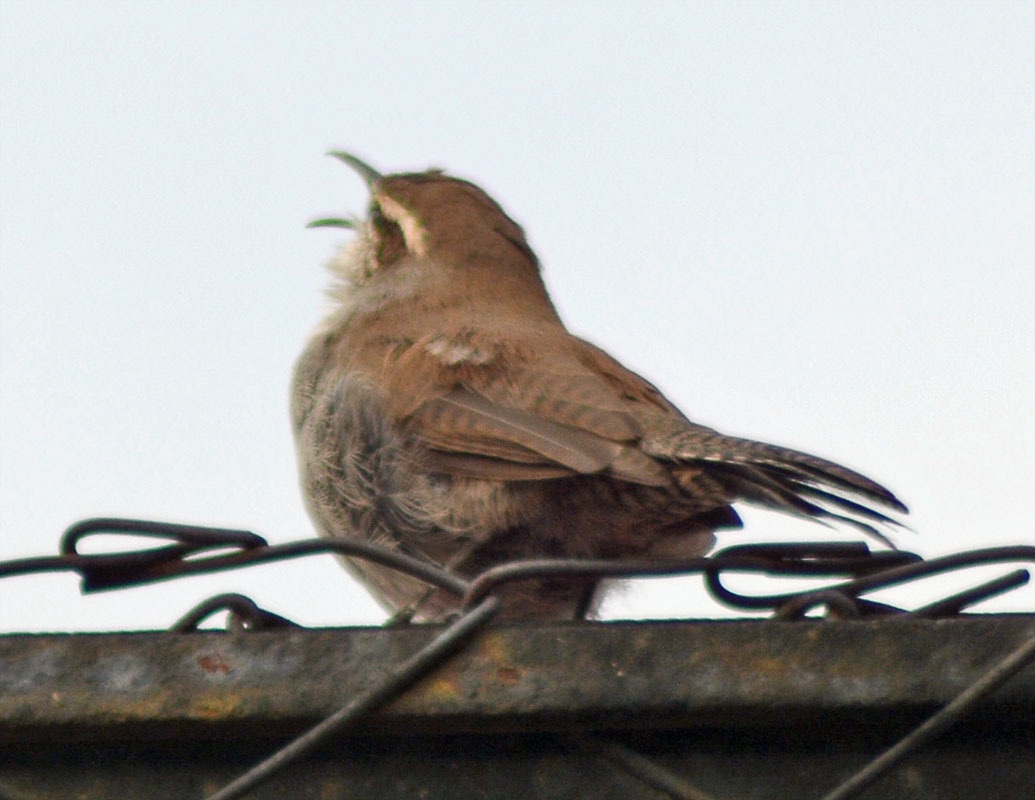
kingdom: Animalia
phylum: Chordata
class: Aves
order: Passeriformes
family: Troglodytidae
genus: Thryomanes
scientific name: Thryomanes bewickii
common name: Bewick's wren
